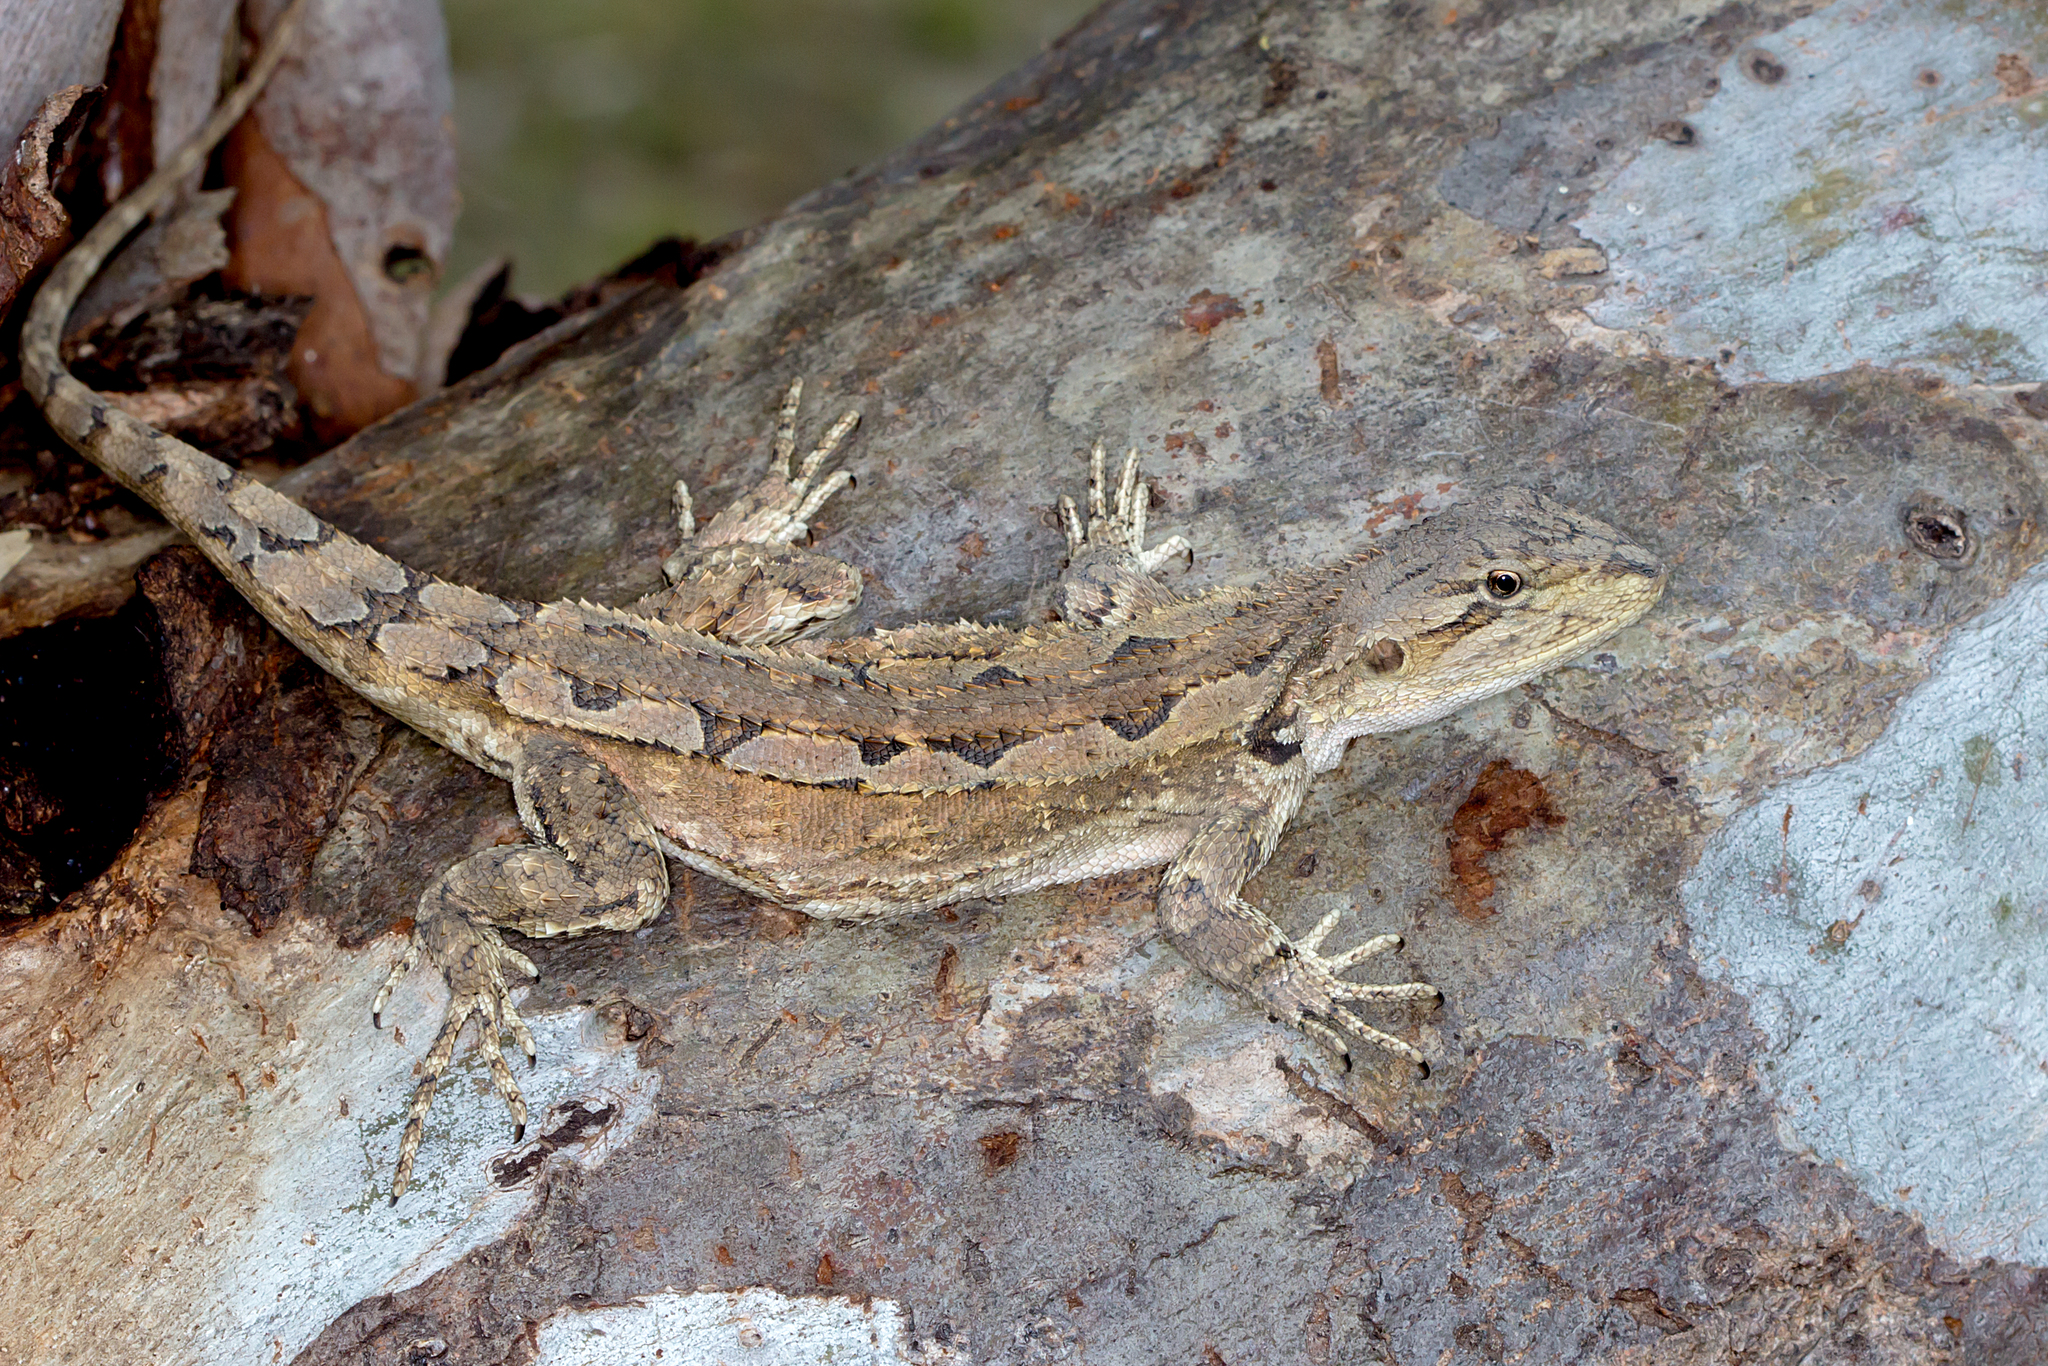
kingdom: Animalia
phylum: Chordata
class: Squamata
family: Agamidae
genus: Amphibolurus
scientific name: Amphibolurus muricatus
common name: Jacky lizard
